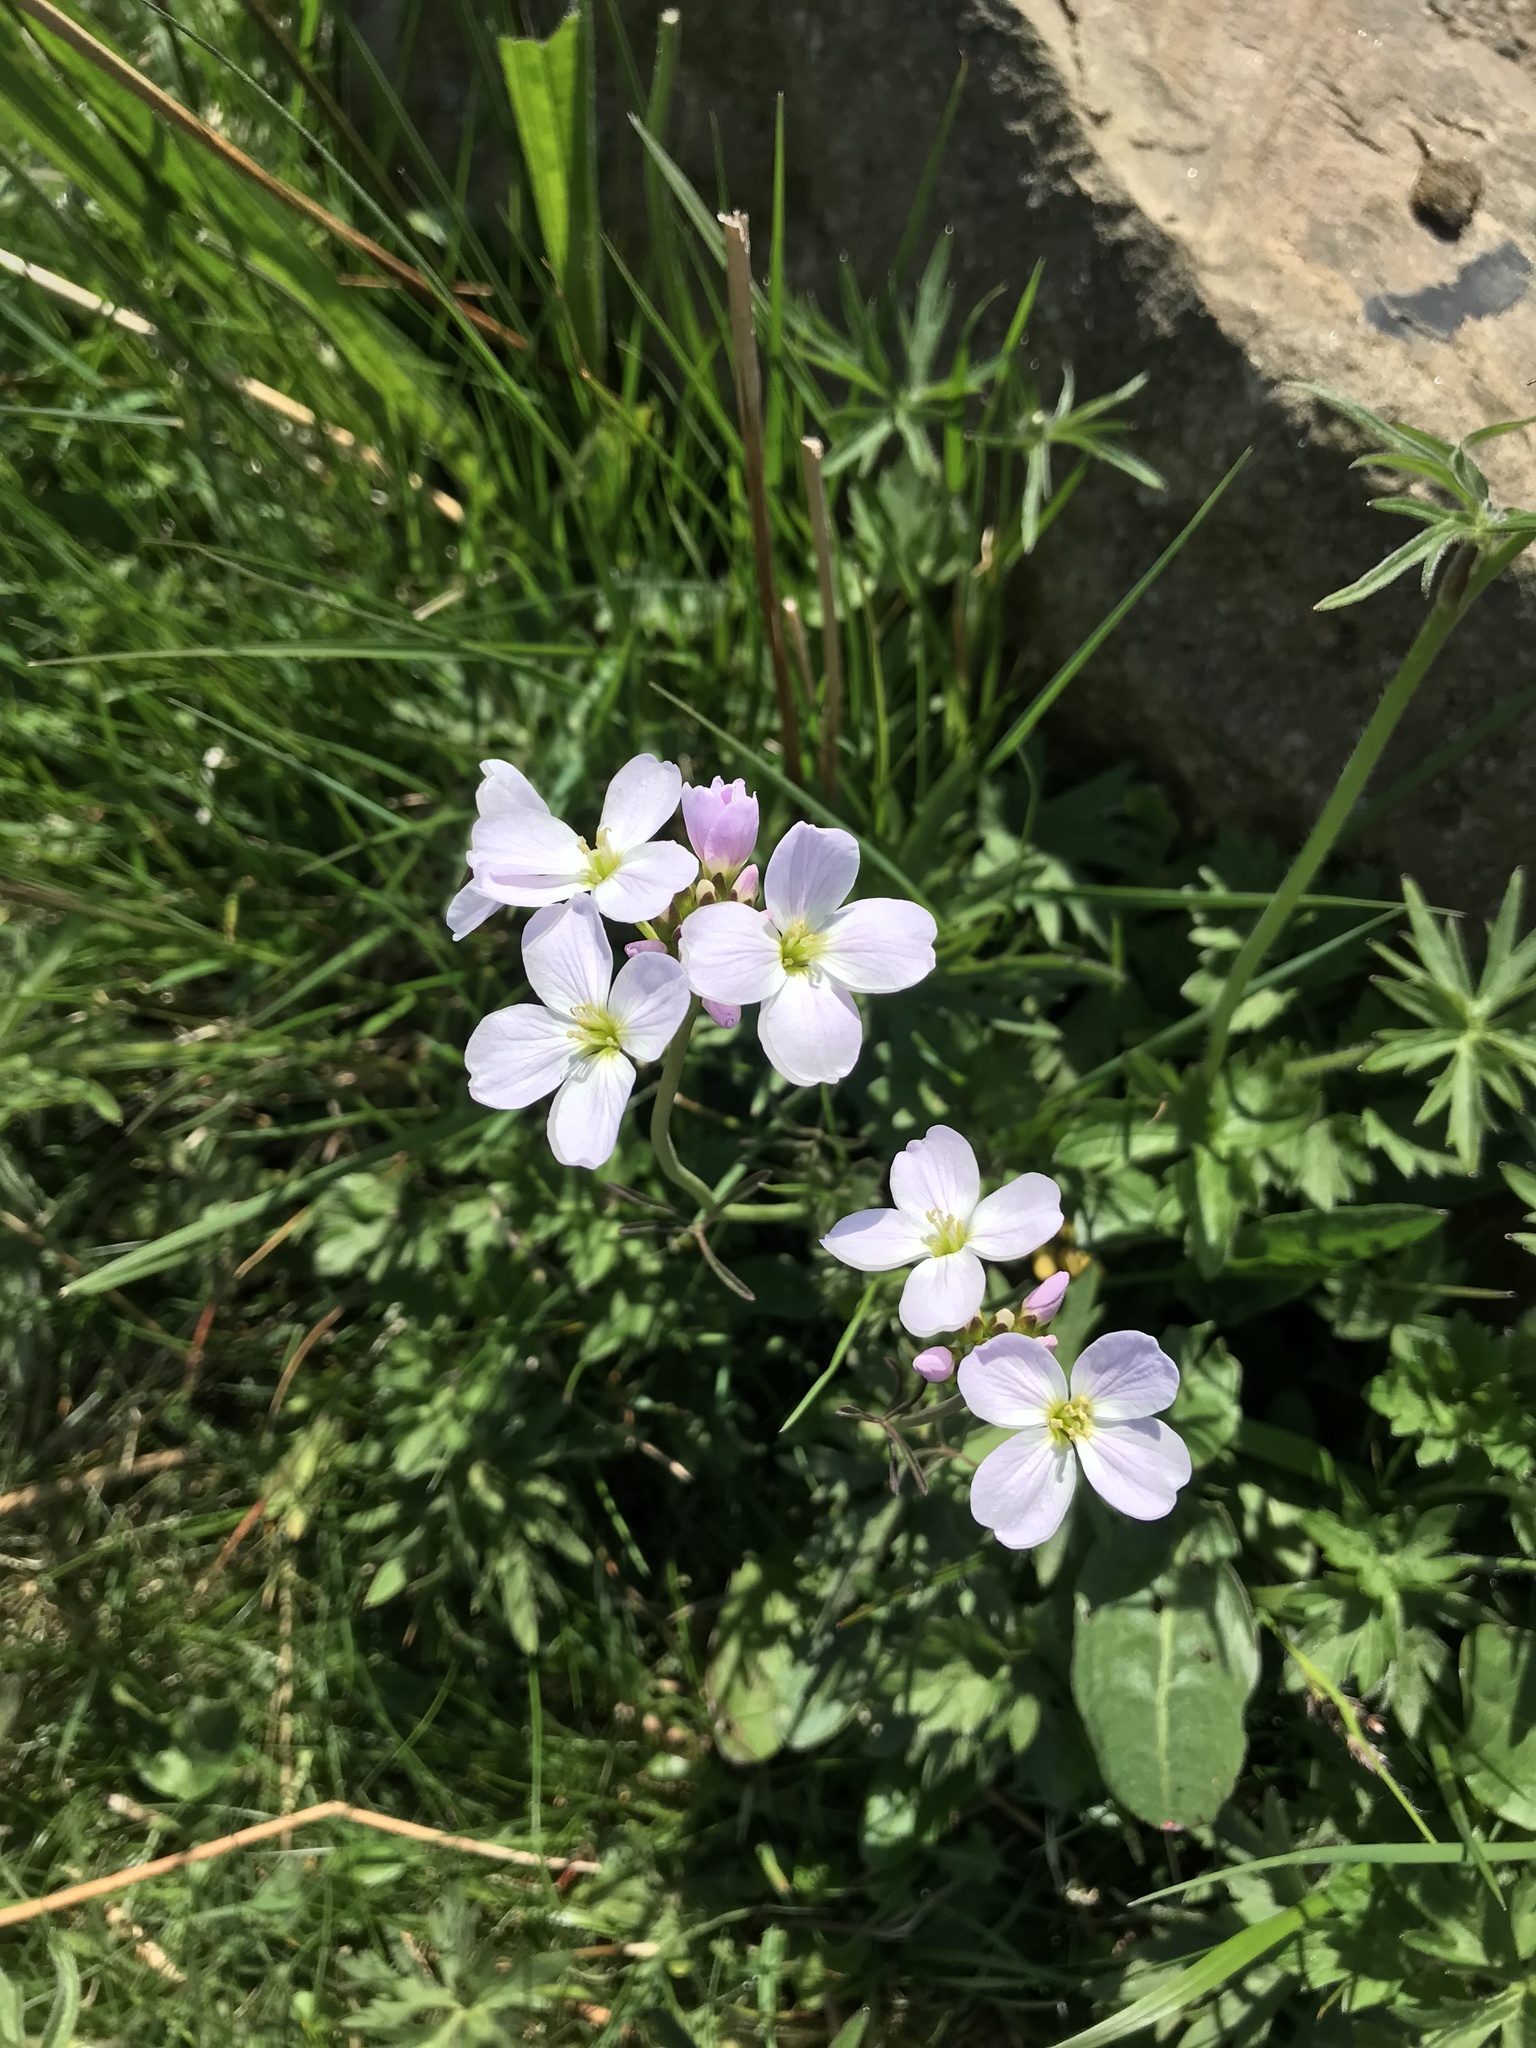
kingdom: Plantae
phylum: Tracheophyta
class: Magnoliopsida
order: Brassicales
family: Brassicaceae
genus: Cardamine
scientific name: Cardamine pratensis
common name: Cuckoo flower
